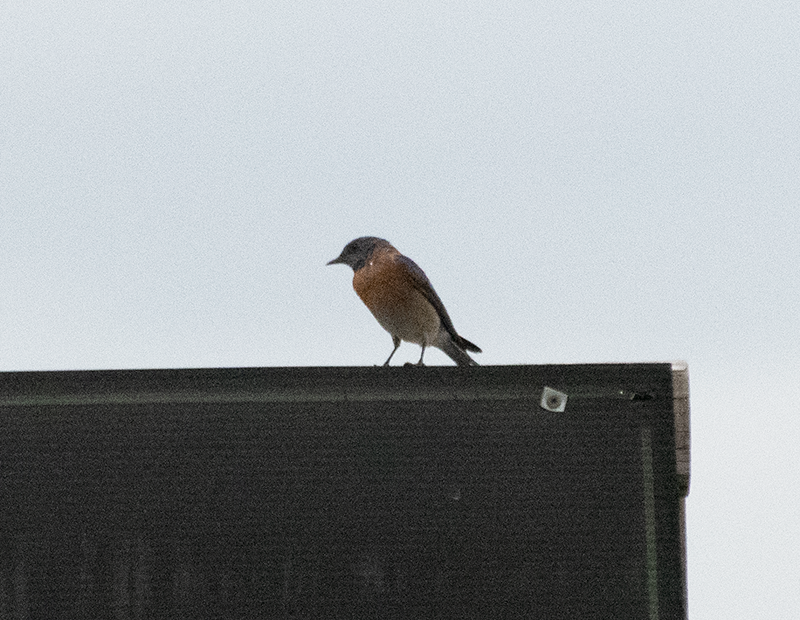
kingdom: Animalia
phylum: Chordata
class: Aves
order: Passeriformes
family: Turdidae
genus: Sialia
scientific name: Sialia mexicana
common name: Western bluebird
